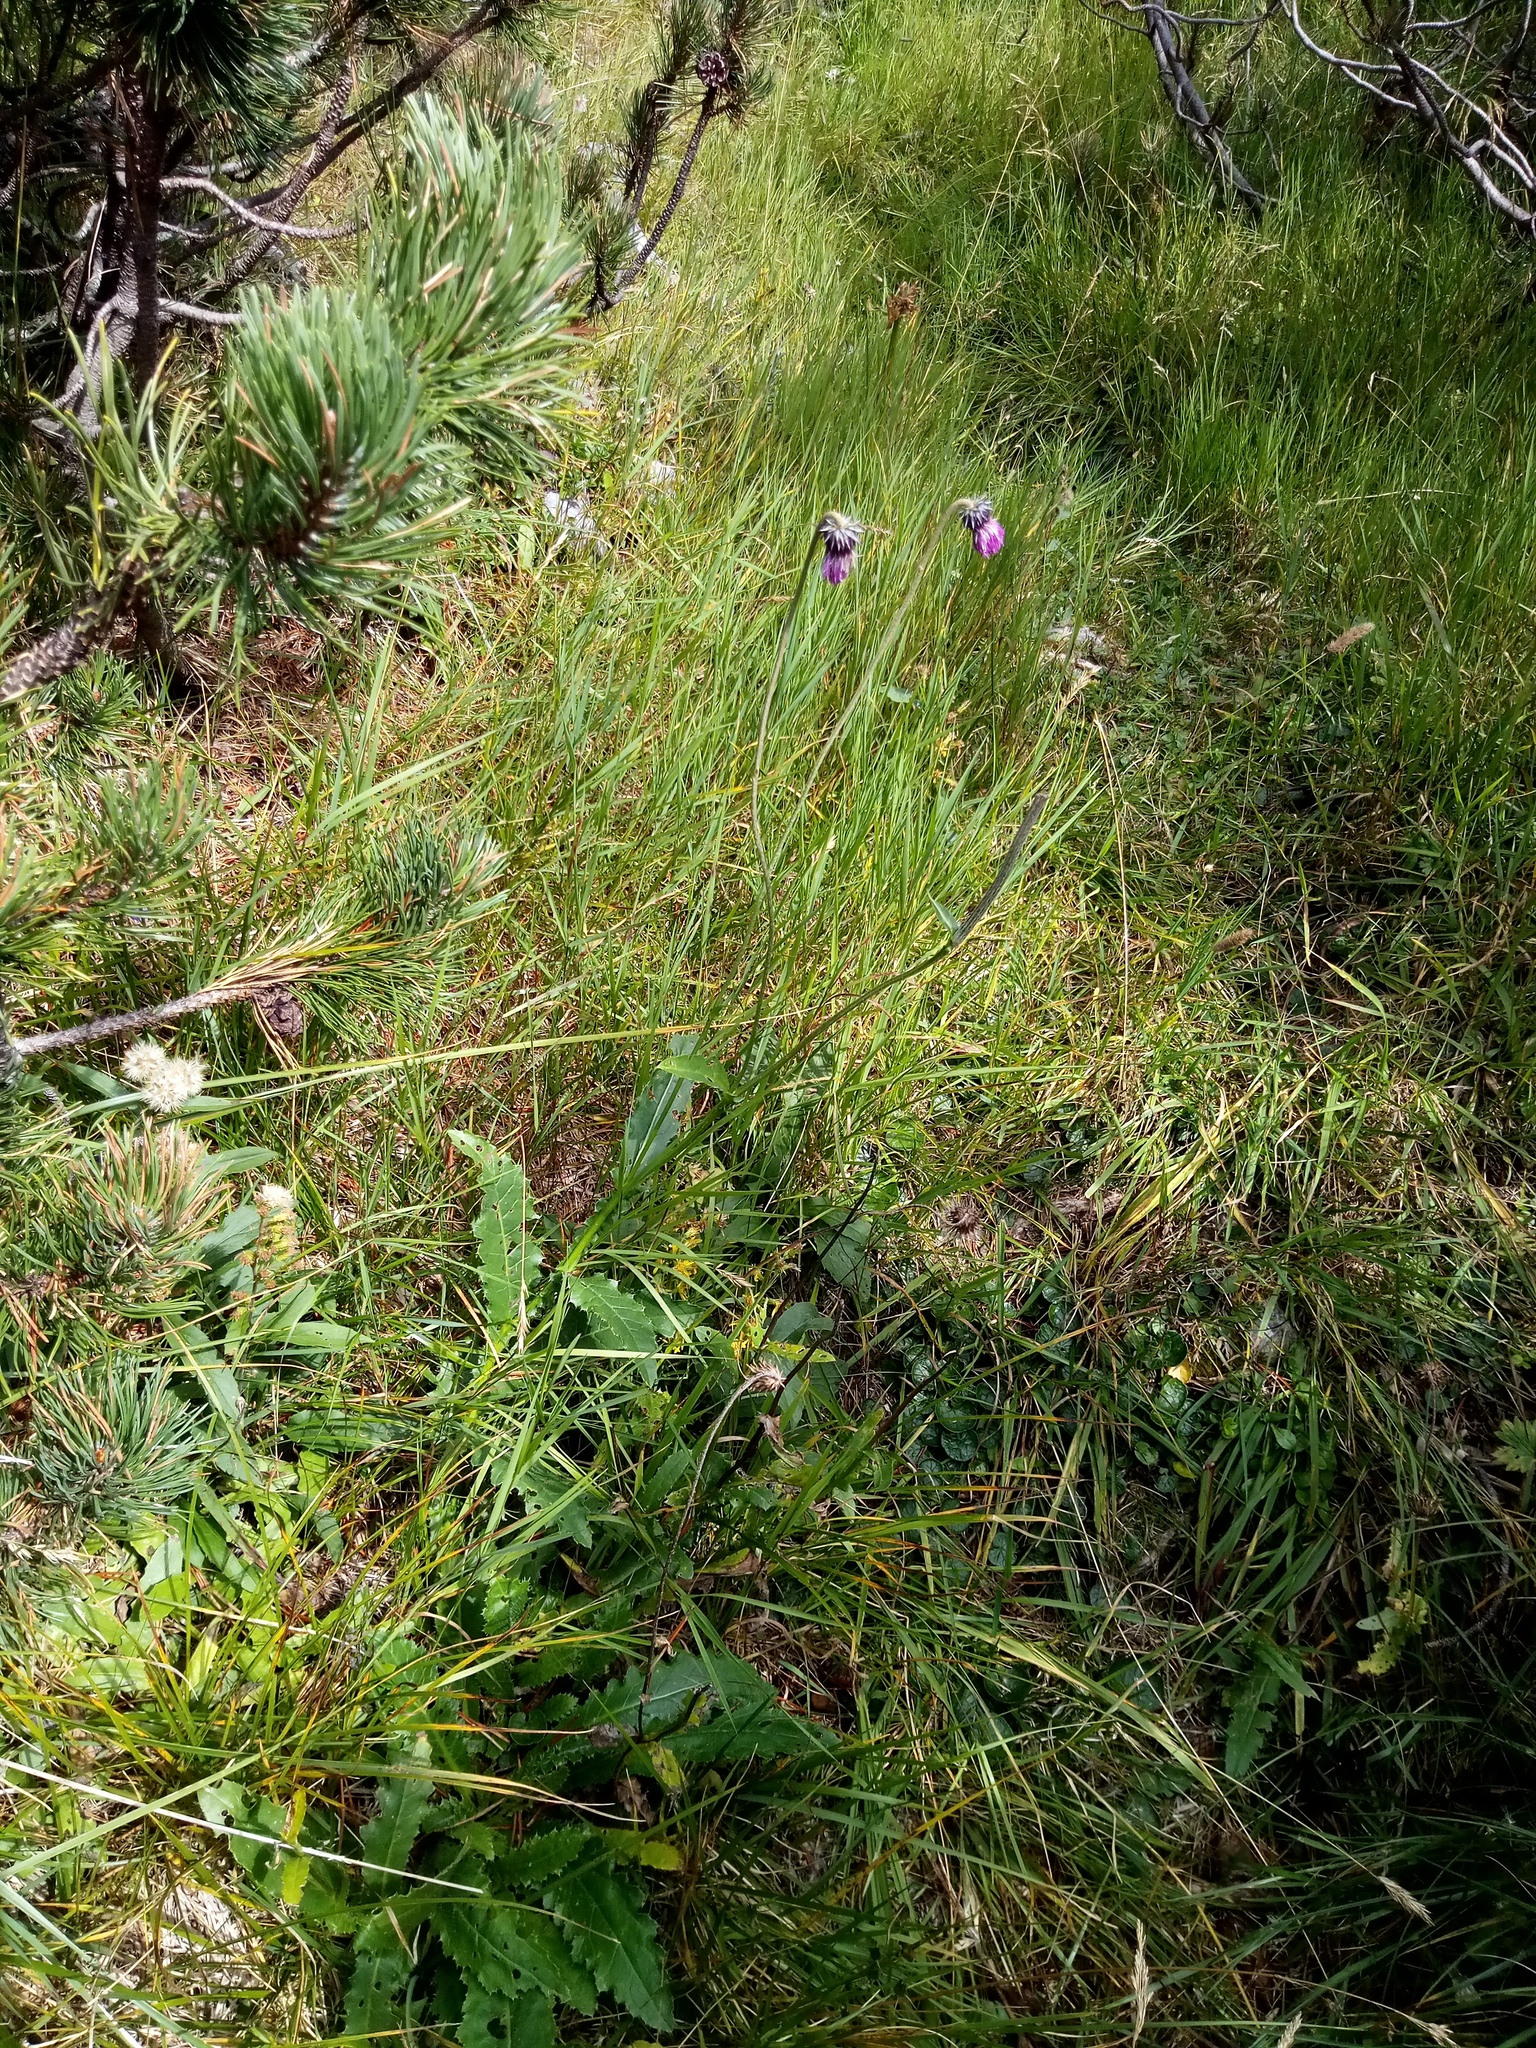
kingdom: Plantae
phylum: Tracheophyta
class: Magnoliopsida
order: Asterales
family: Asteraceae
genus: Carduus
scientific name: Carduus defloratus
